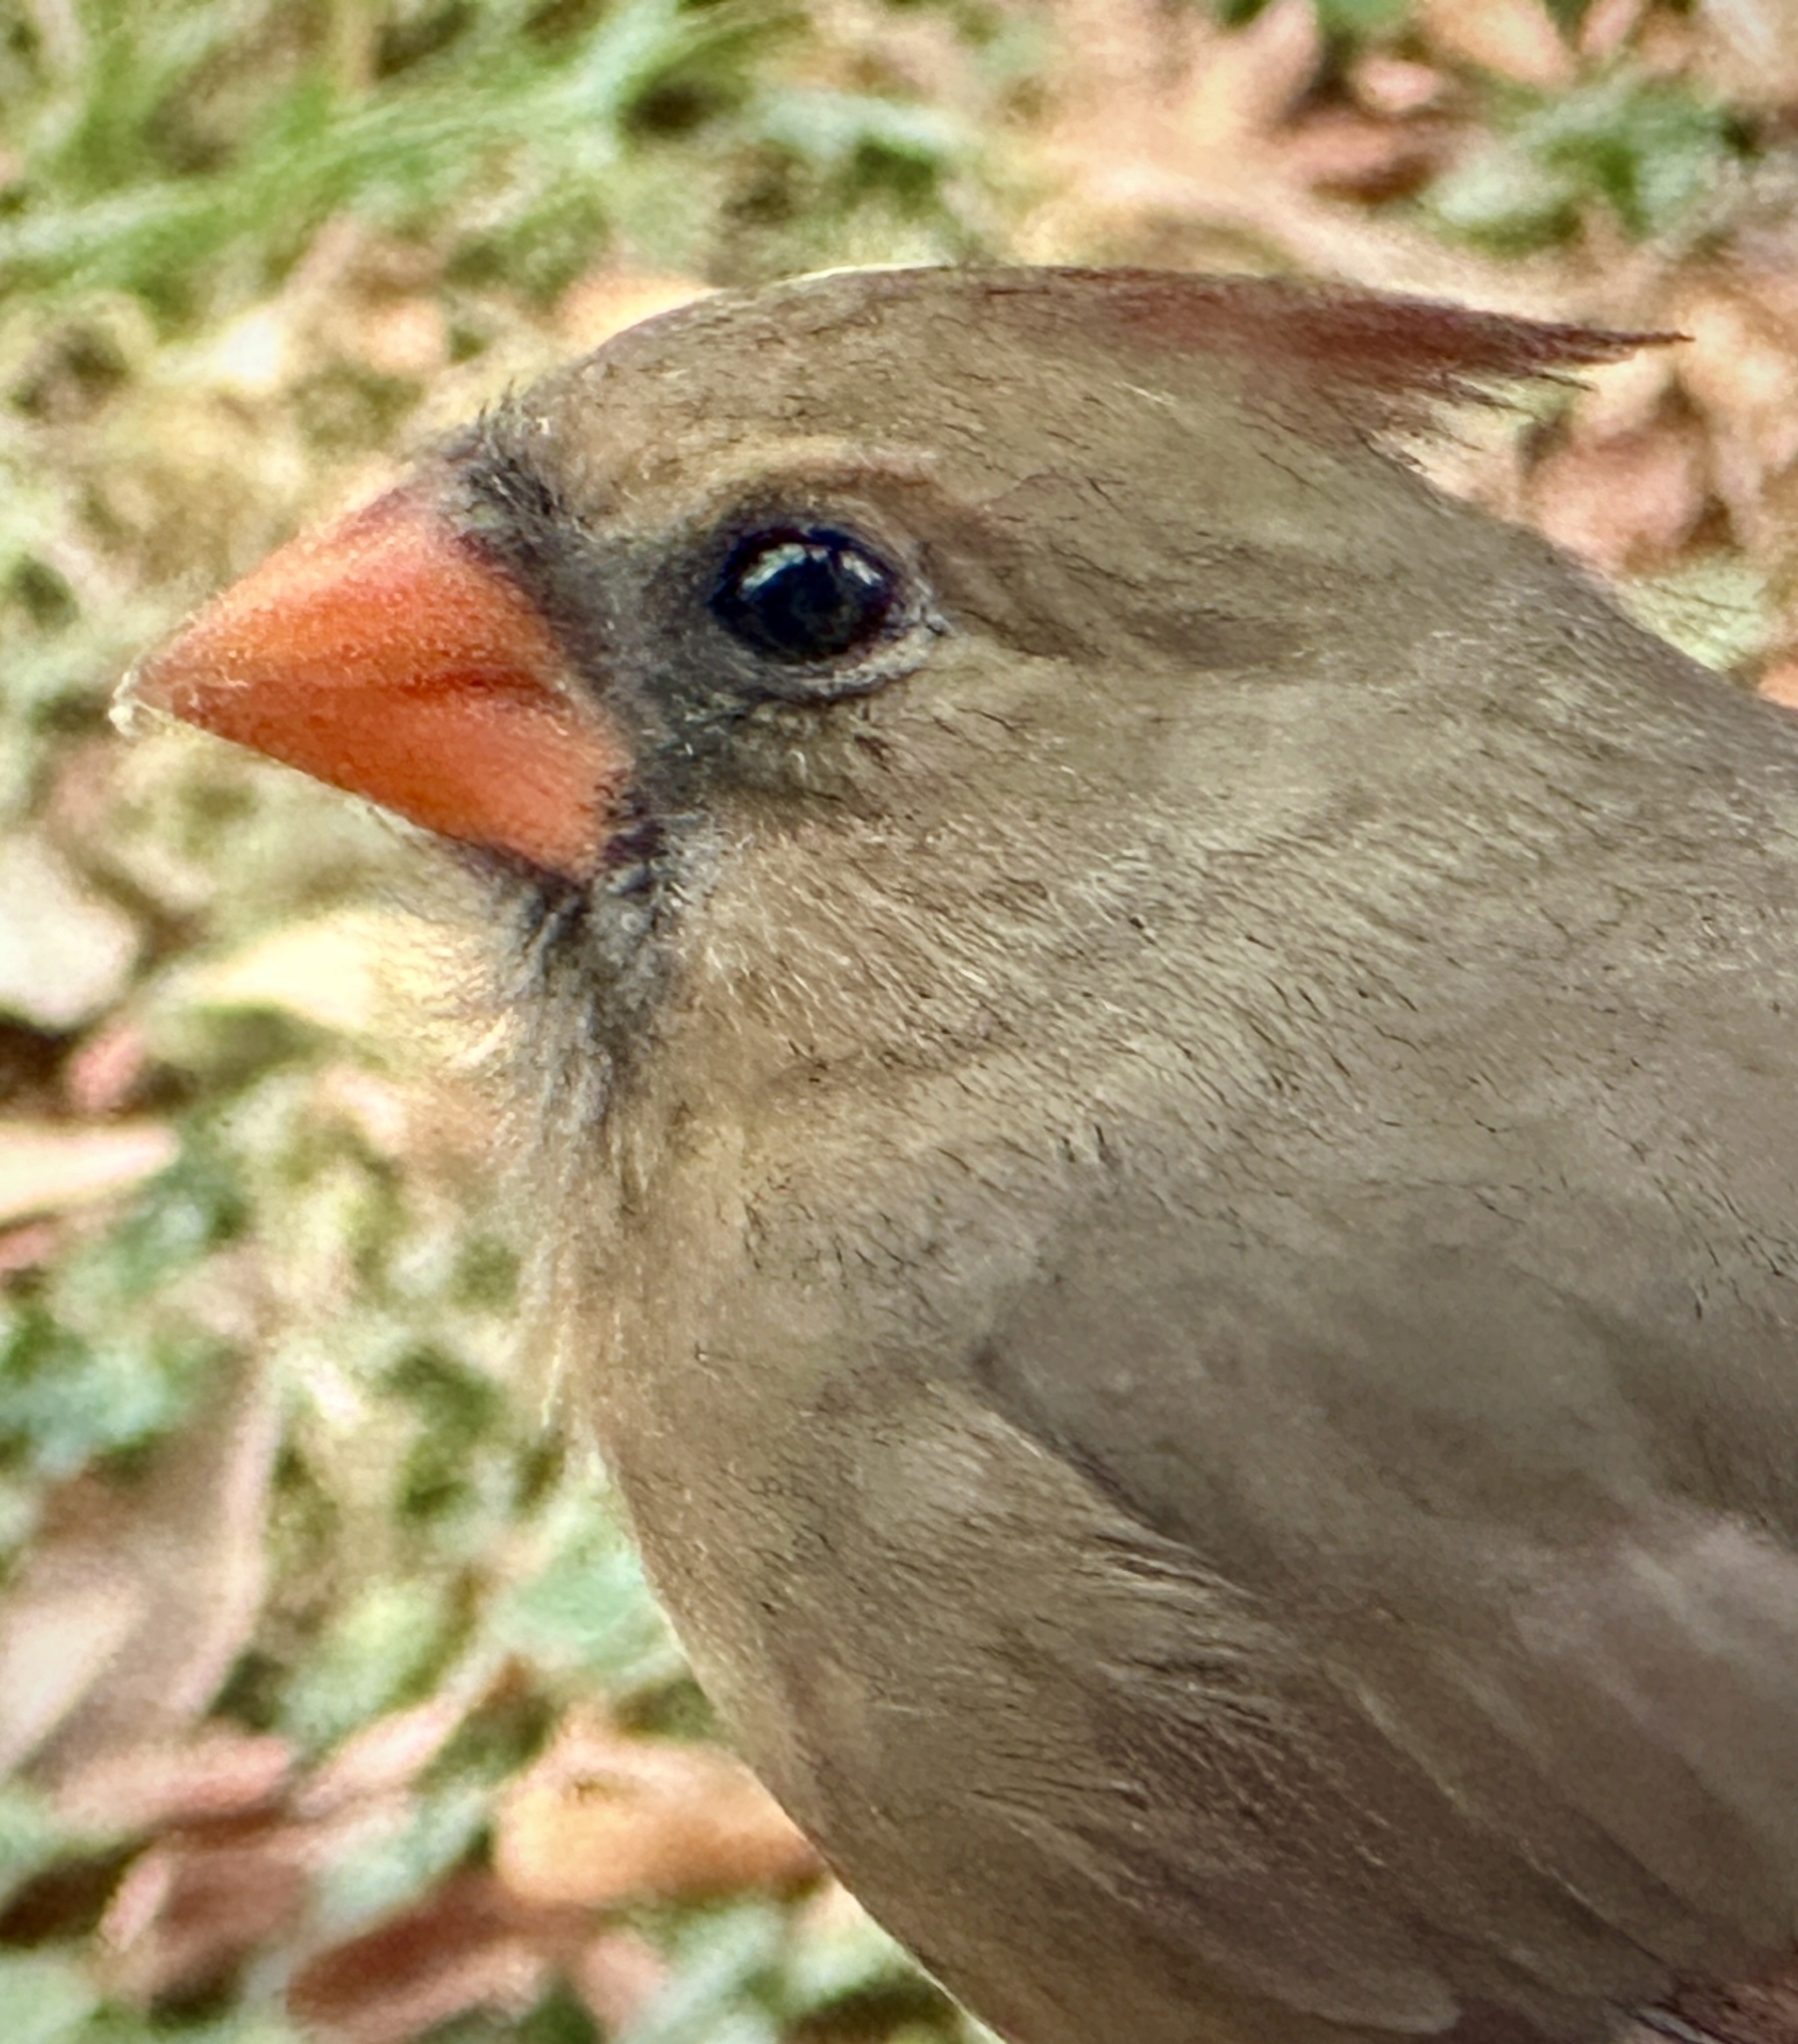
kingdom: Animalia
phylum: Chordata
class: Aves
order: Passeriformes
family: Cardinalidae
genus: Cardinalis
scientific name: Cardinalis cardinalis
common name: Northern cardinal
